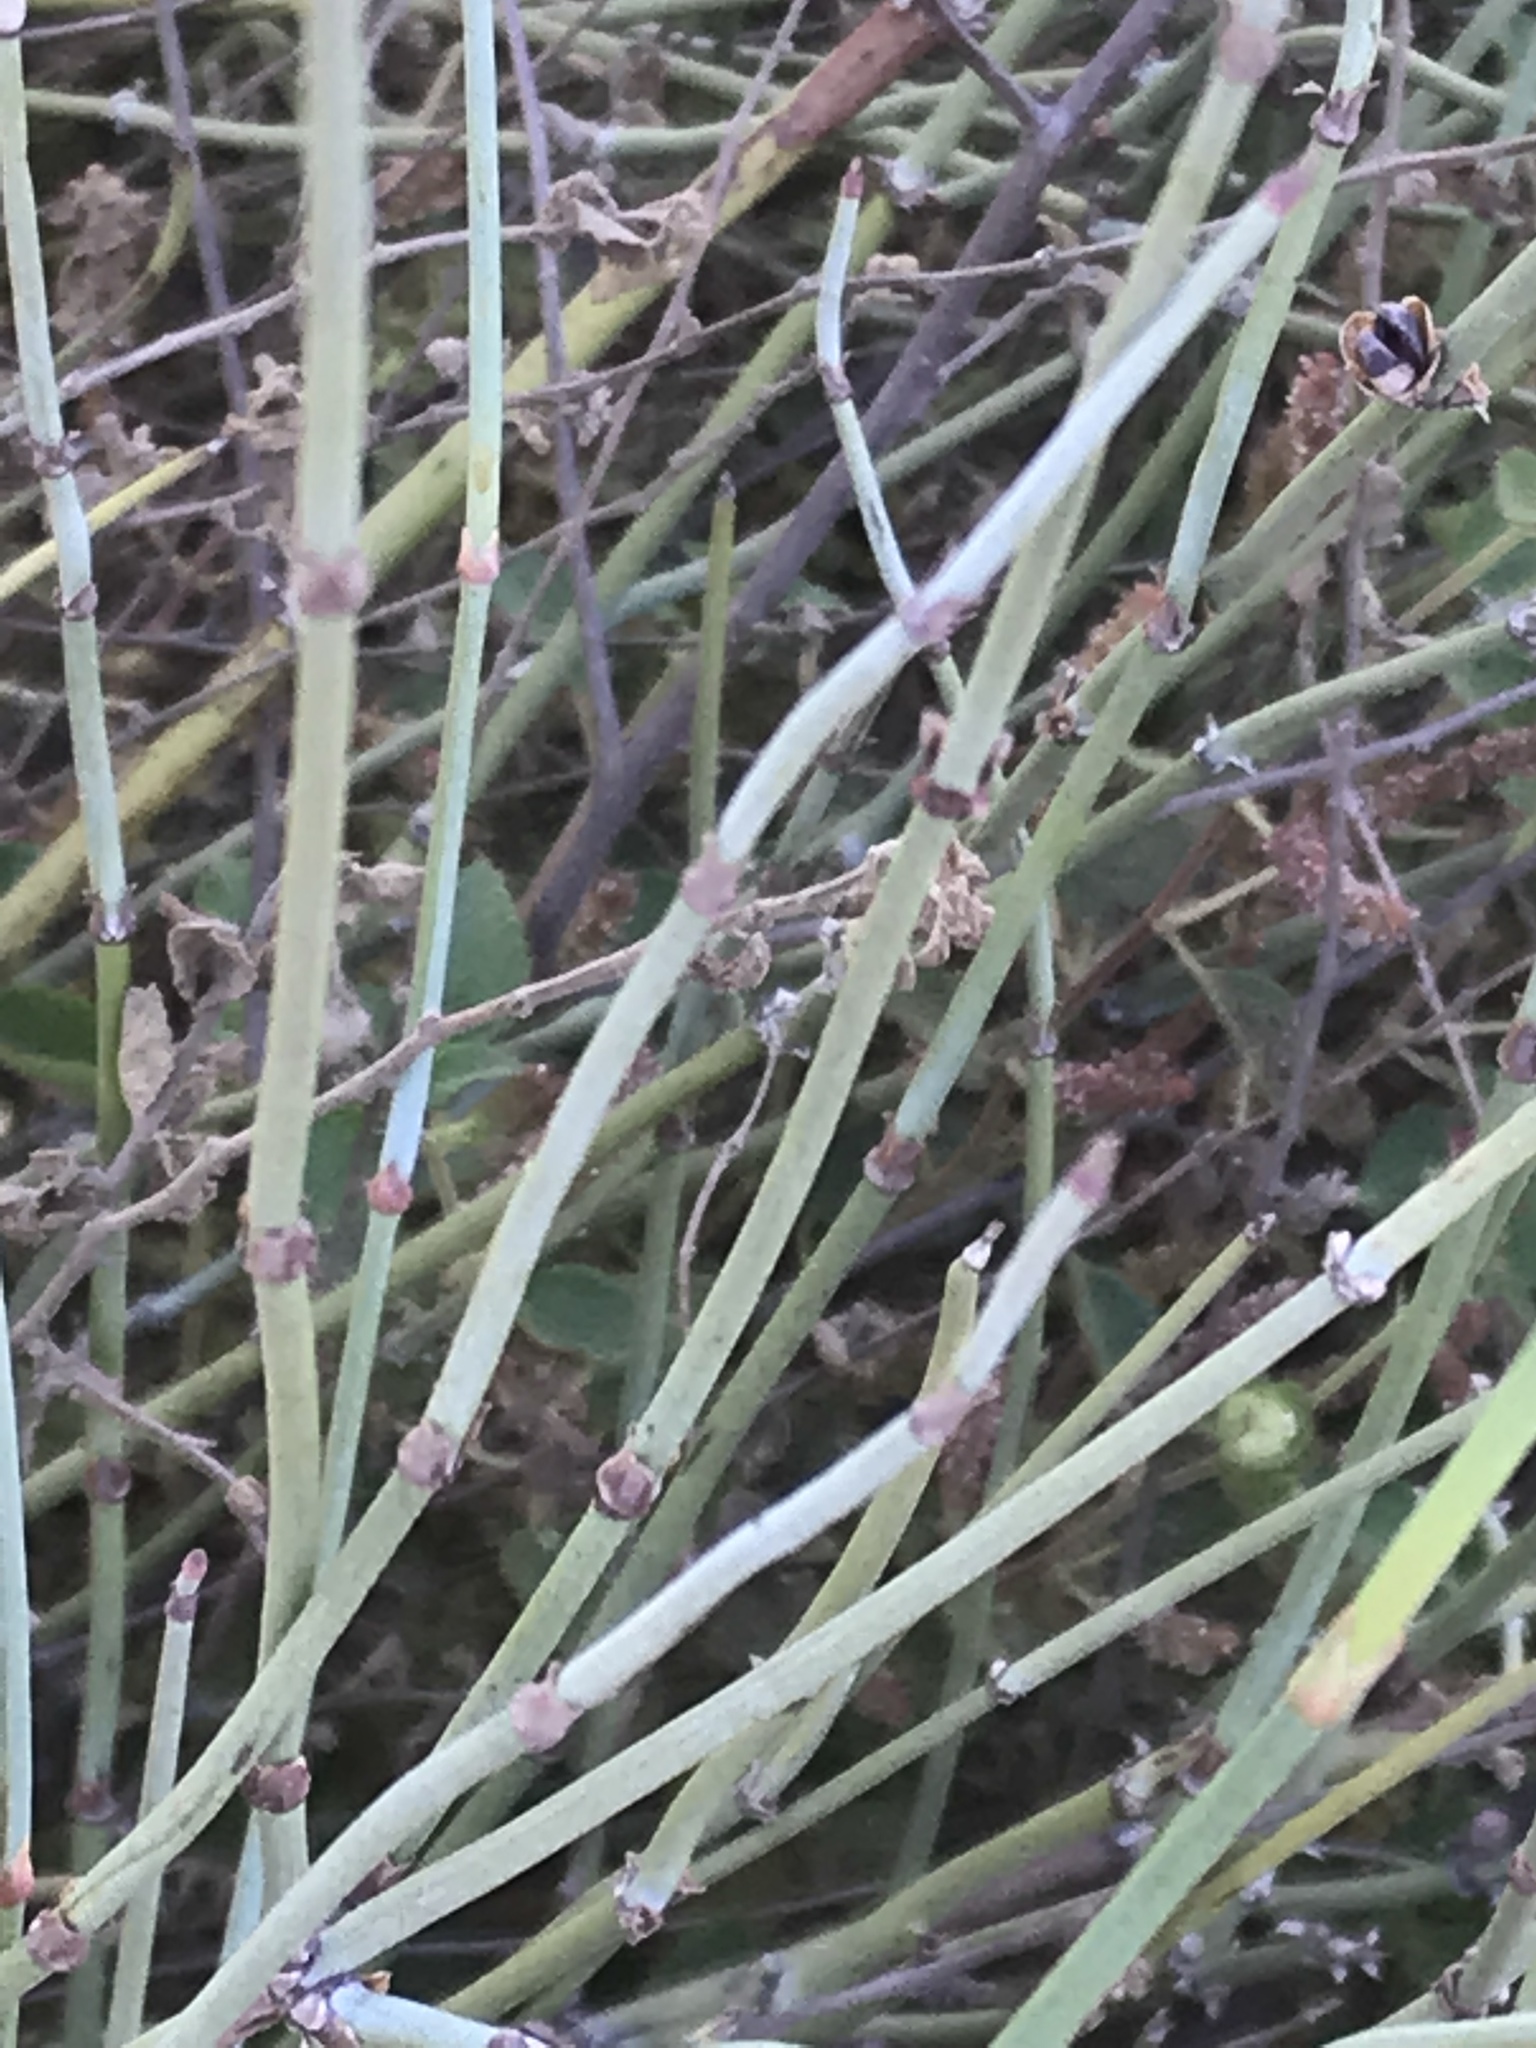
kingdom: Plantae
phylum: Tracheophyta
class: Gnetopsida
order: Ephedrales
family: Ephedraceae
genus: Ephedra
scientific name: Ephedra californica
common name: California ephedra
